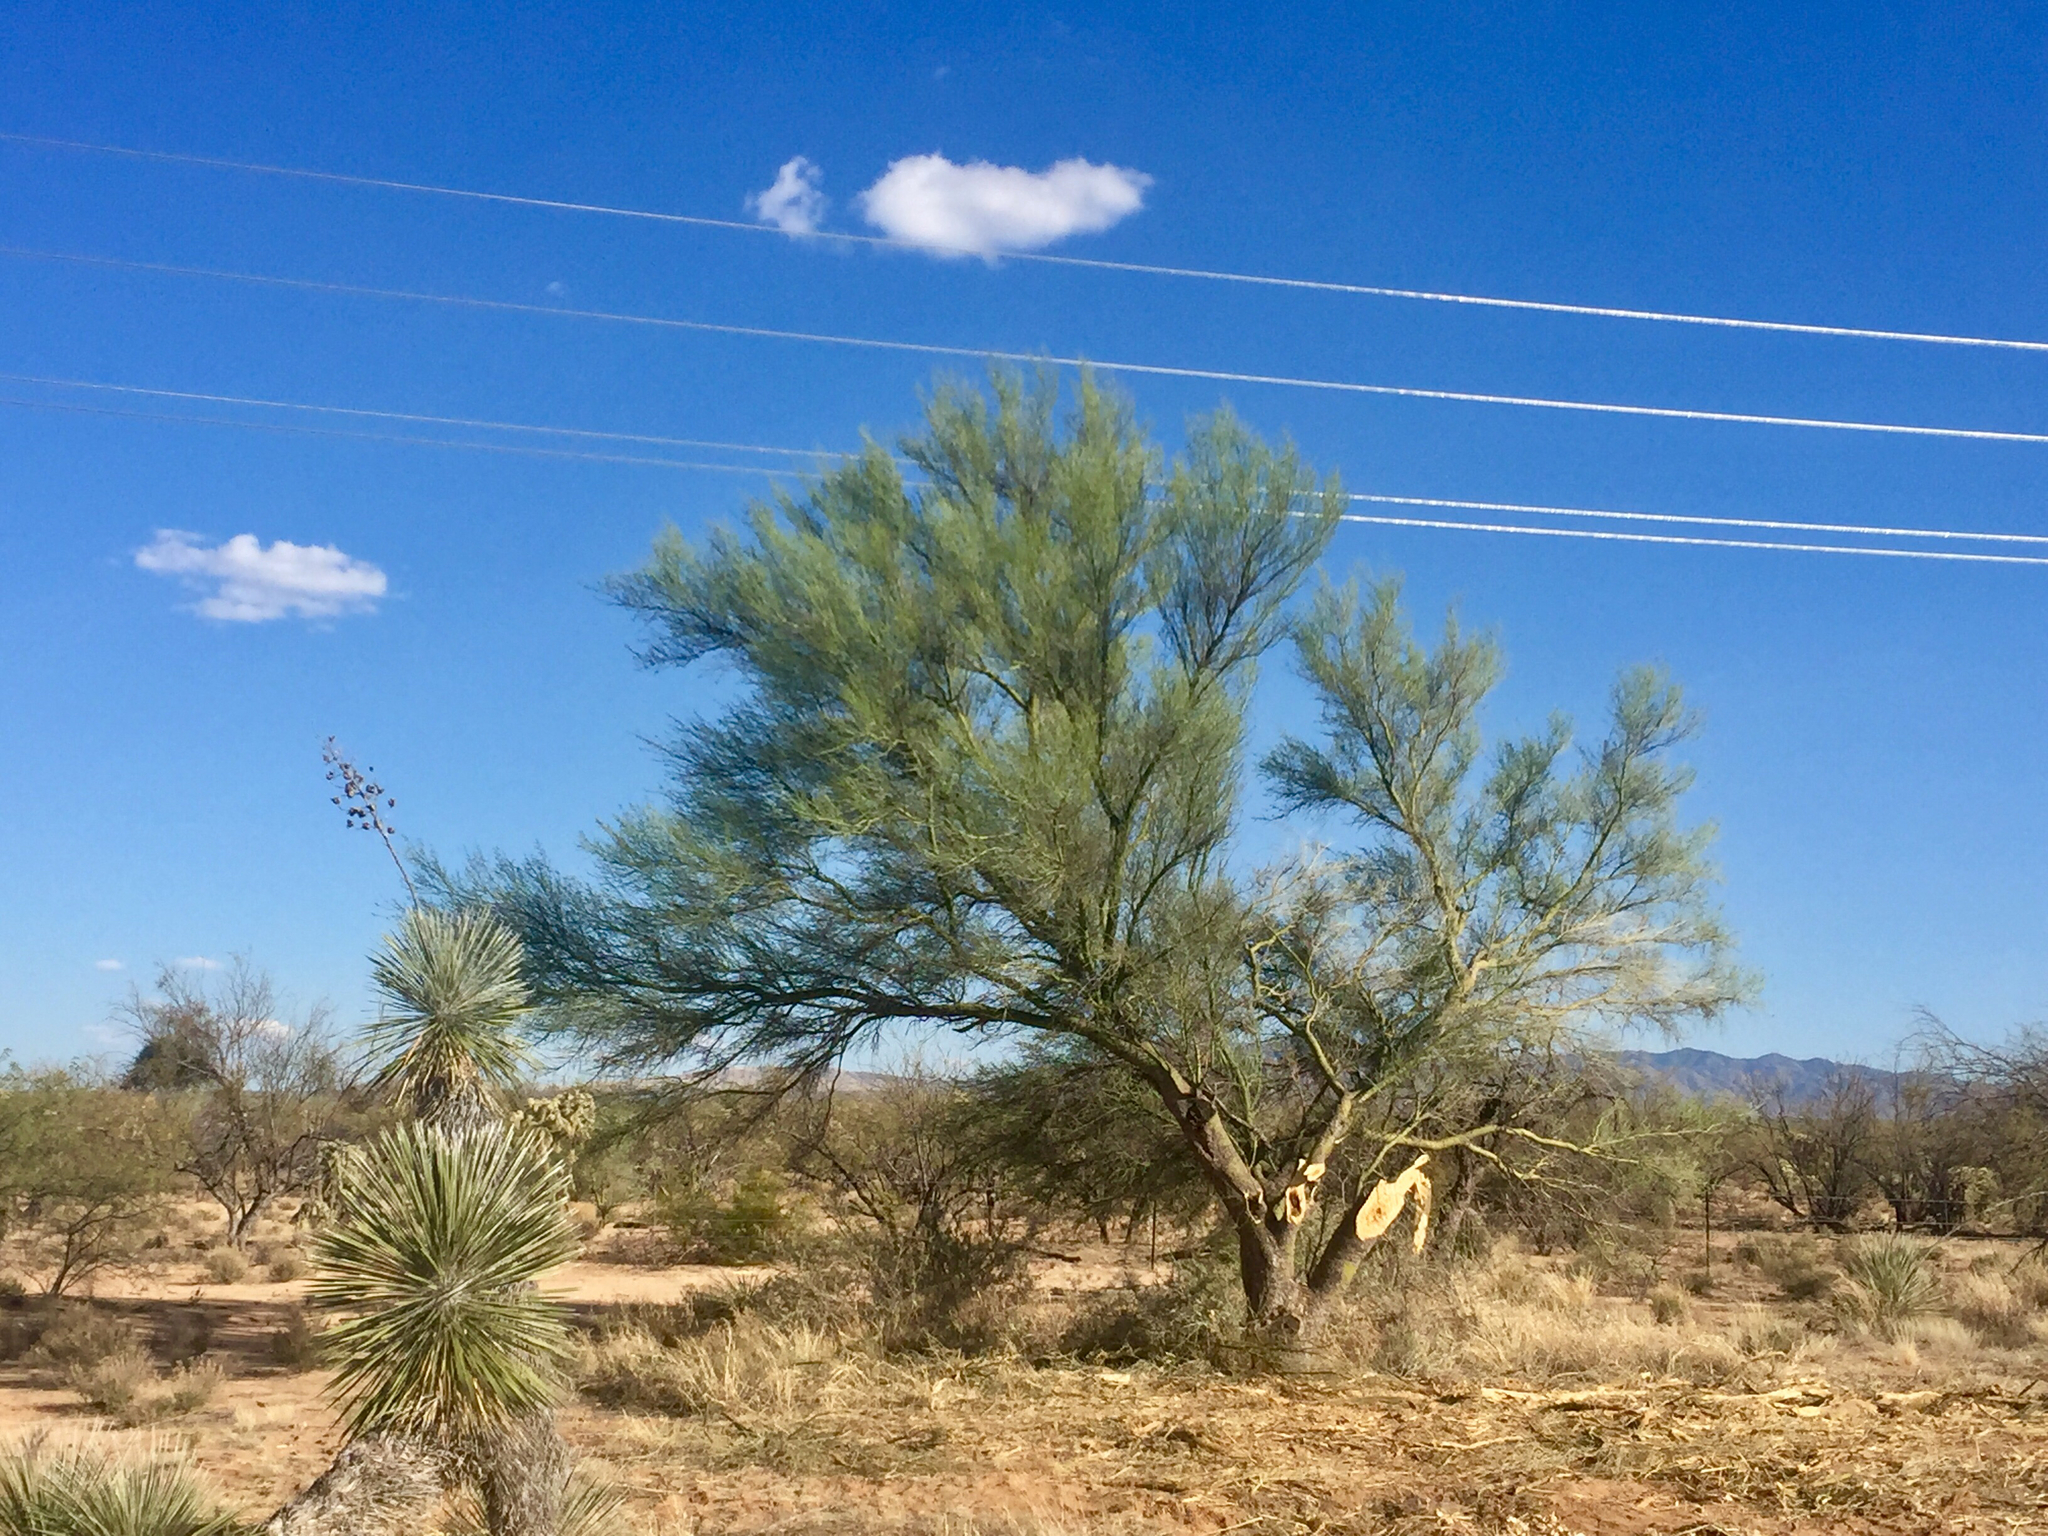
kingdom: Plantae
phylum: Tracheophyta
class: Magnoliopsida
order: Fabales
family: Fabaceae
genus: Parkinsonia
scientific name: Parkinsonia microphylla
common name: Yellow paloverde
